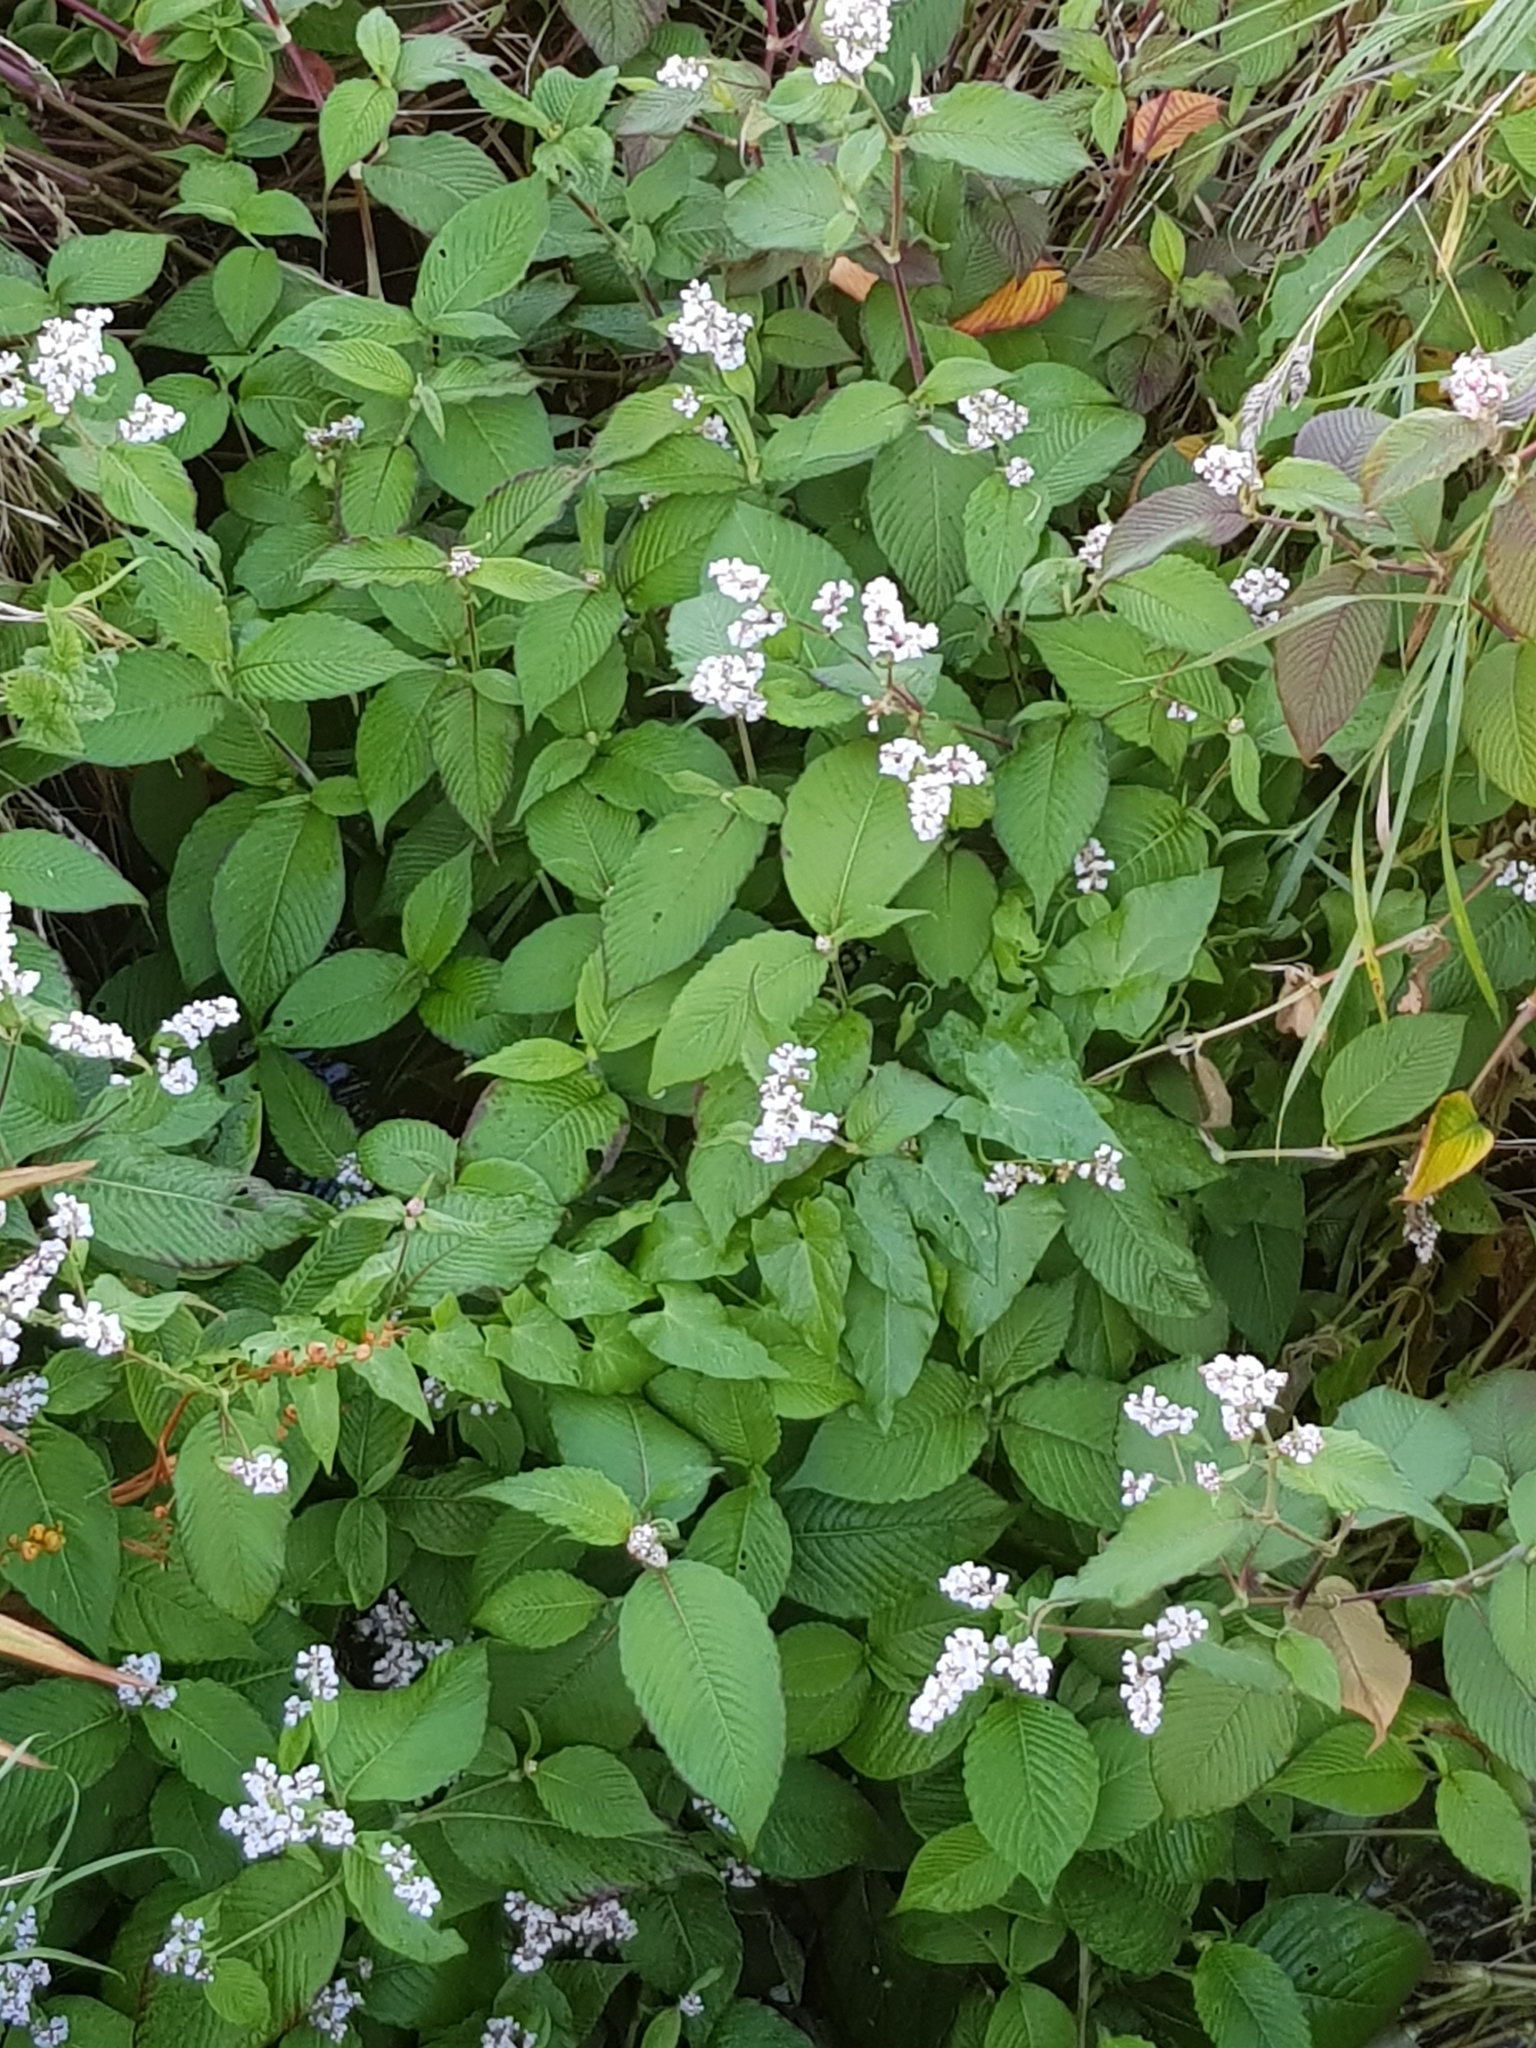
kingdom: Plantae
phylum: Tracheophyta
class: Magnoliopsida
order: Caryophyllales
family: Polygonaceae
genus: Koenigia
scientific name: Koenigia campanulata
